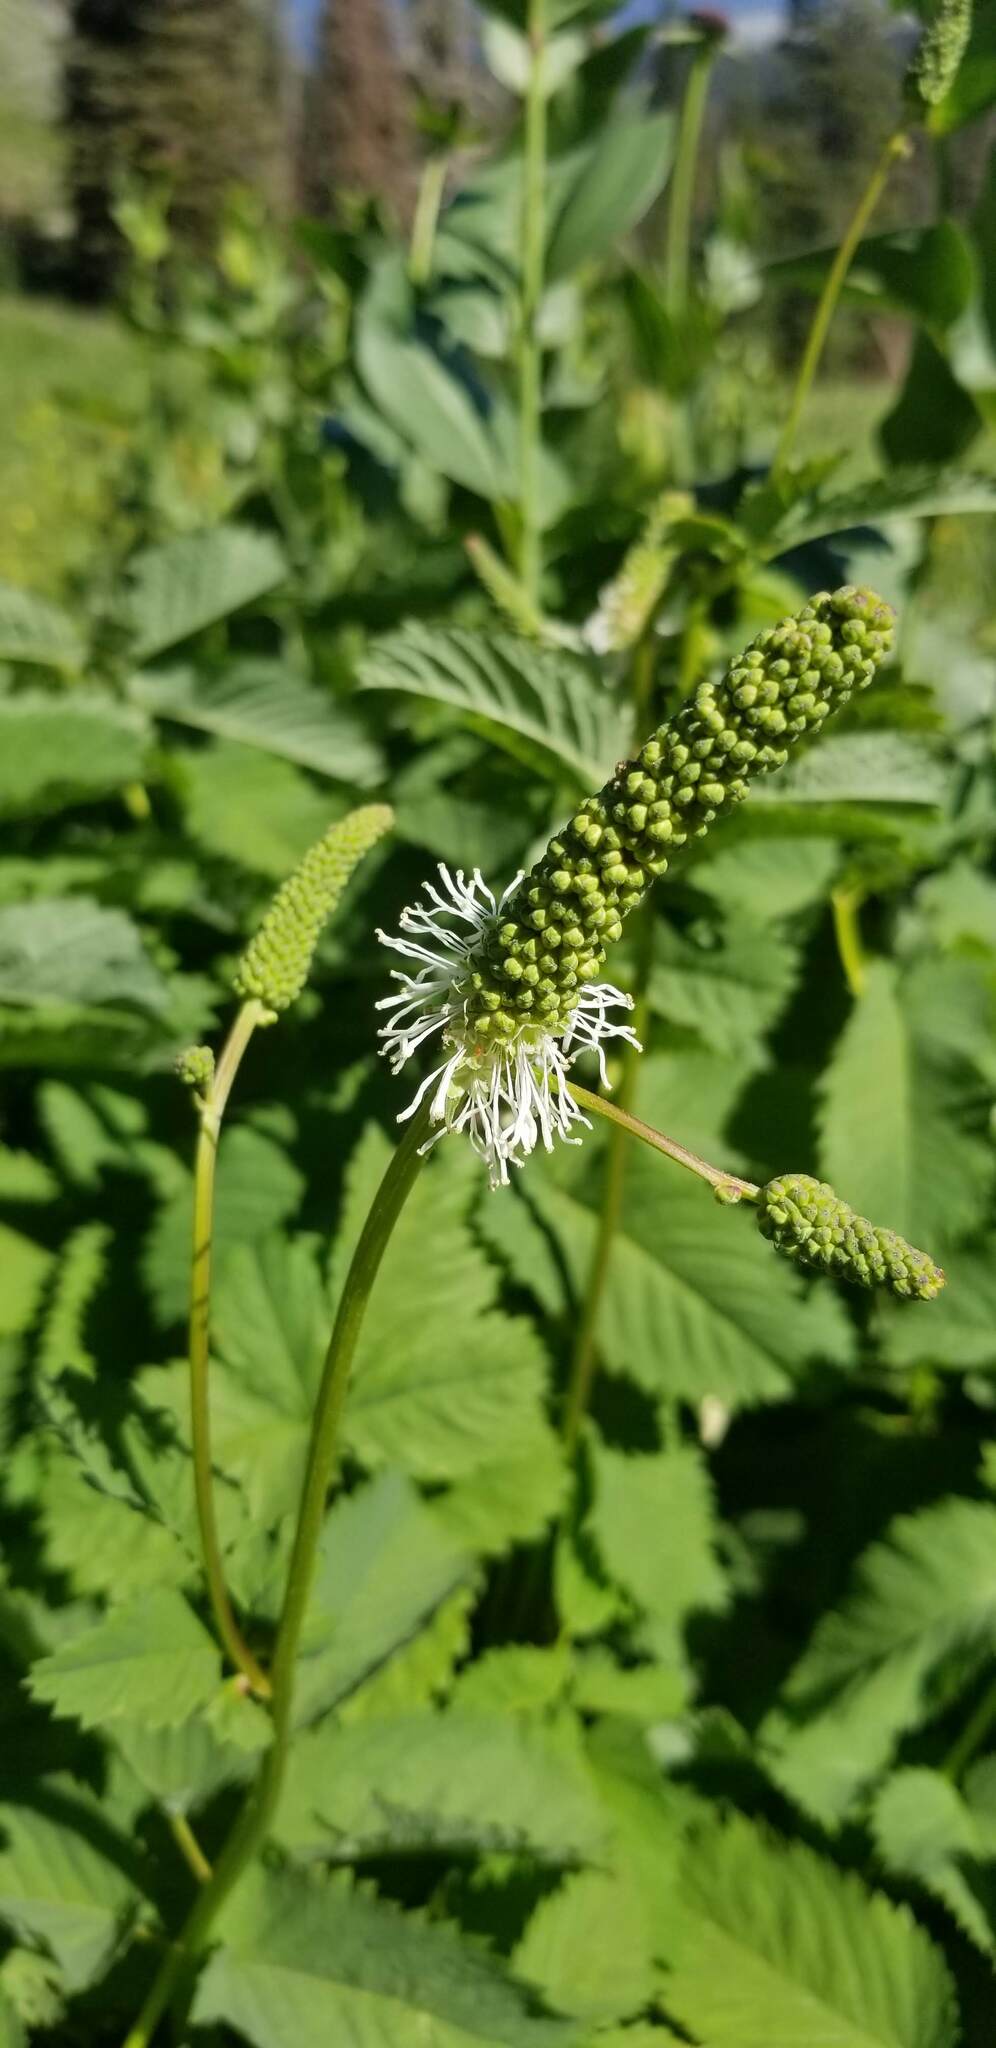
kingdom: Plantae
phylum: Tracheophyta
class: Magnoliopsida
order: Rosales
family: Rosaceae
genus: Sanguisorba
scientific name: Sanguisorba stipulata
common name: Sitka burnet
